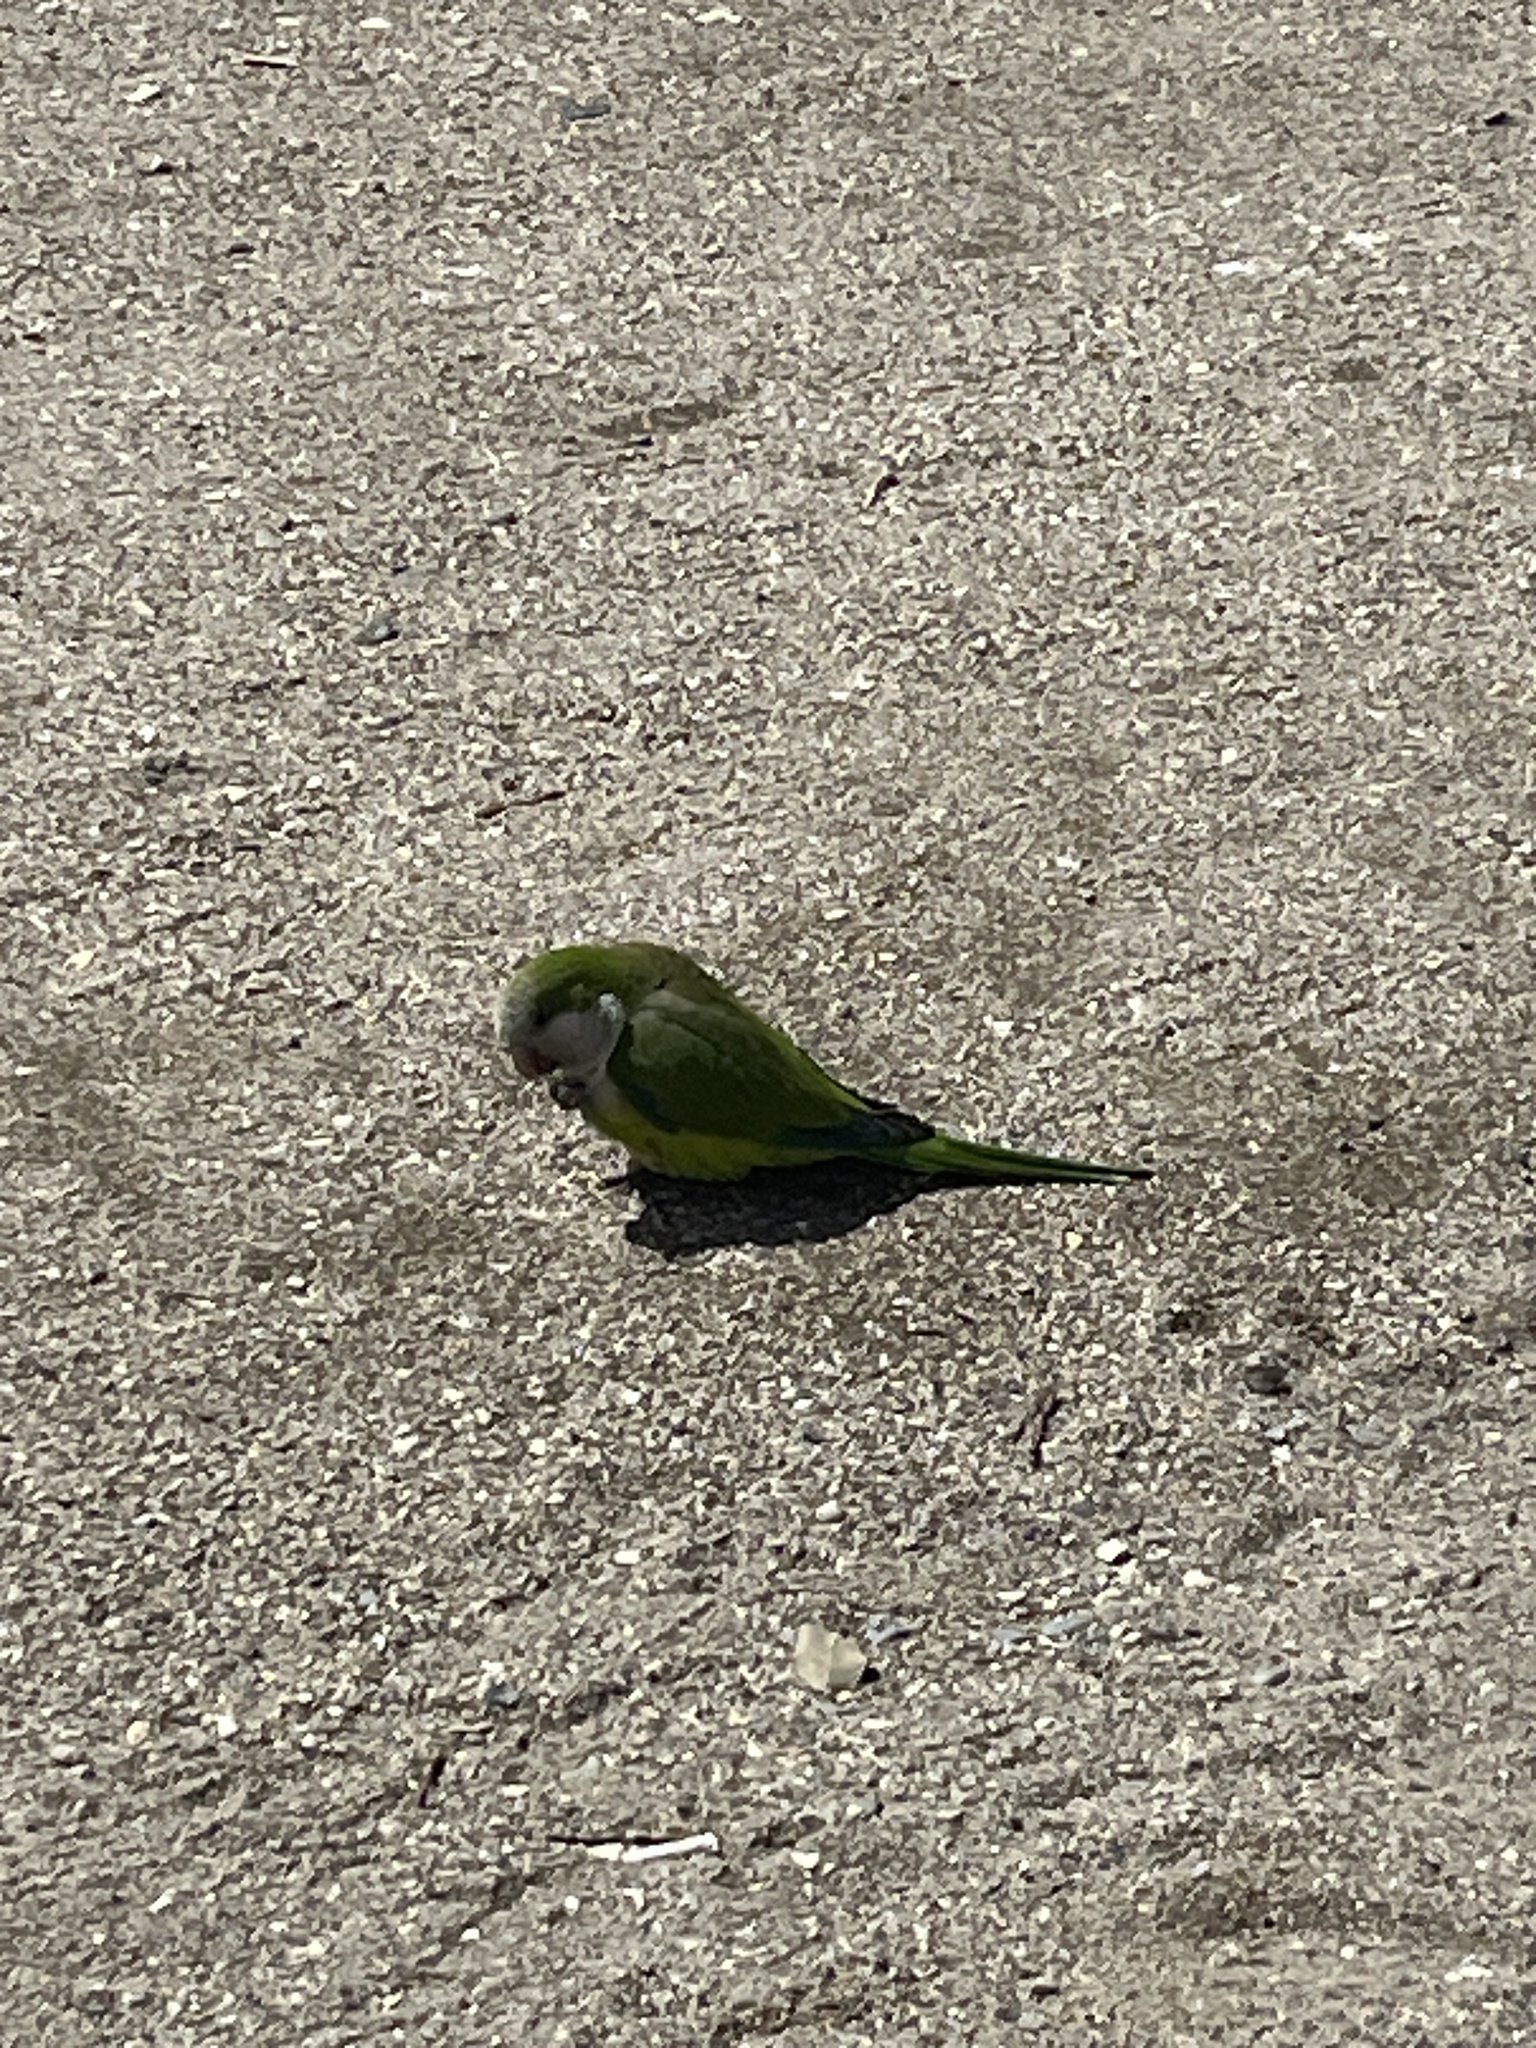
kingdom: Animalia
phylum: Chordata
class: Aves
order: Psittaciformes
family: Psittacidae
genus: Myiopsitta
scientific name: Myiopsitta monachus
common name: Monk parakeet
